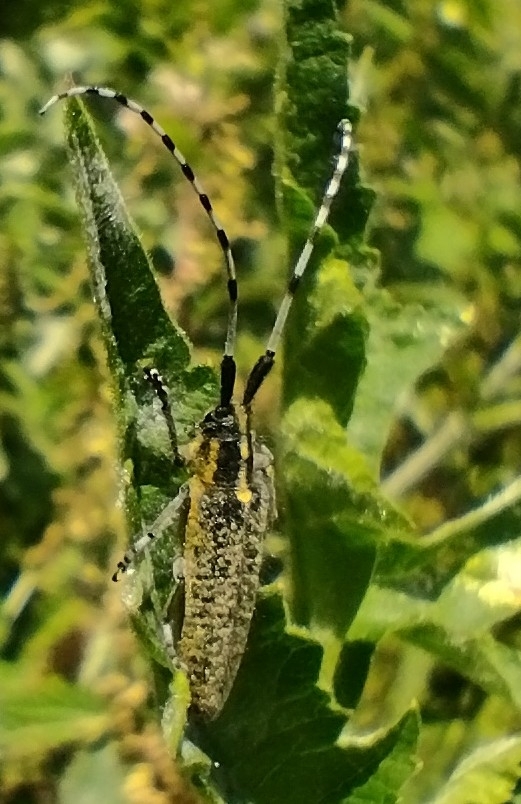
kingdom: Animalia
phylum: Arthropoda
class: Insecta
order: Coleoptera
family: Cerambycidae
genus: Agapanthia
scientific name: Agapanthia villosoviridescens
